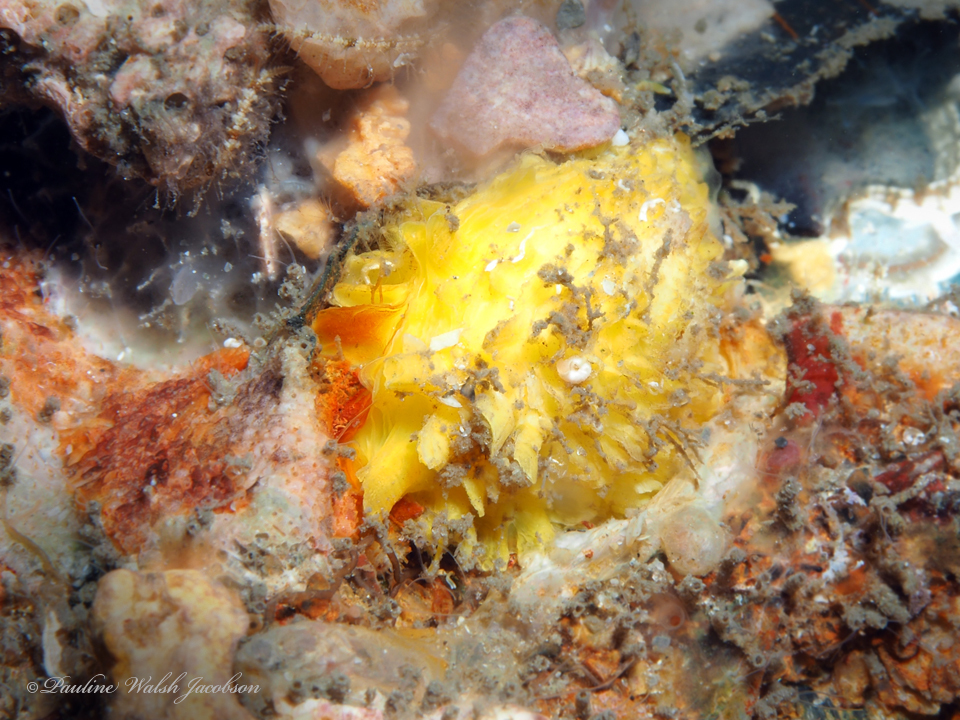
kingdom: Animalia
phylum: Mollusca
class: Bivalvia
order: Venerida
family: Chamidae
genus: Chama
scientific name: Chama macerophylla
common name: Leafy jewelbox
